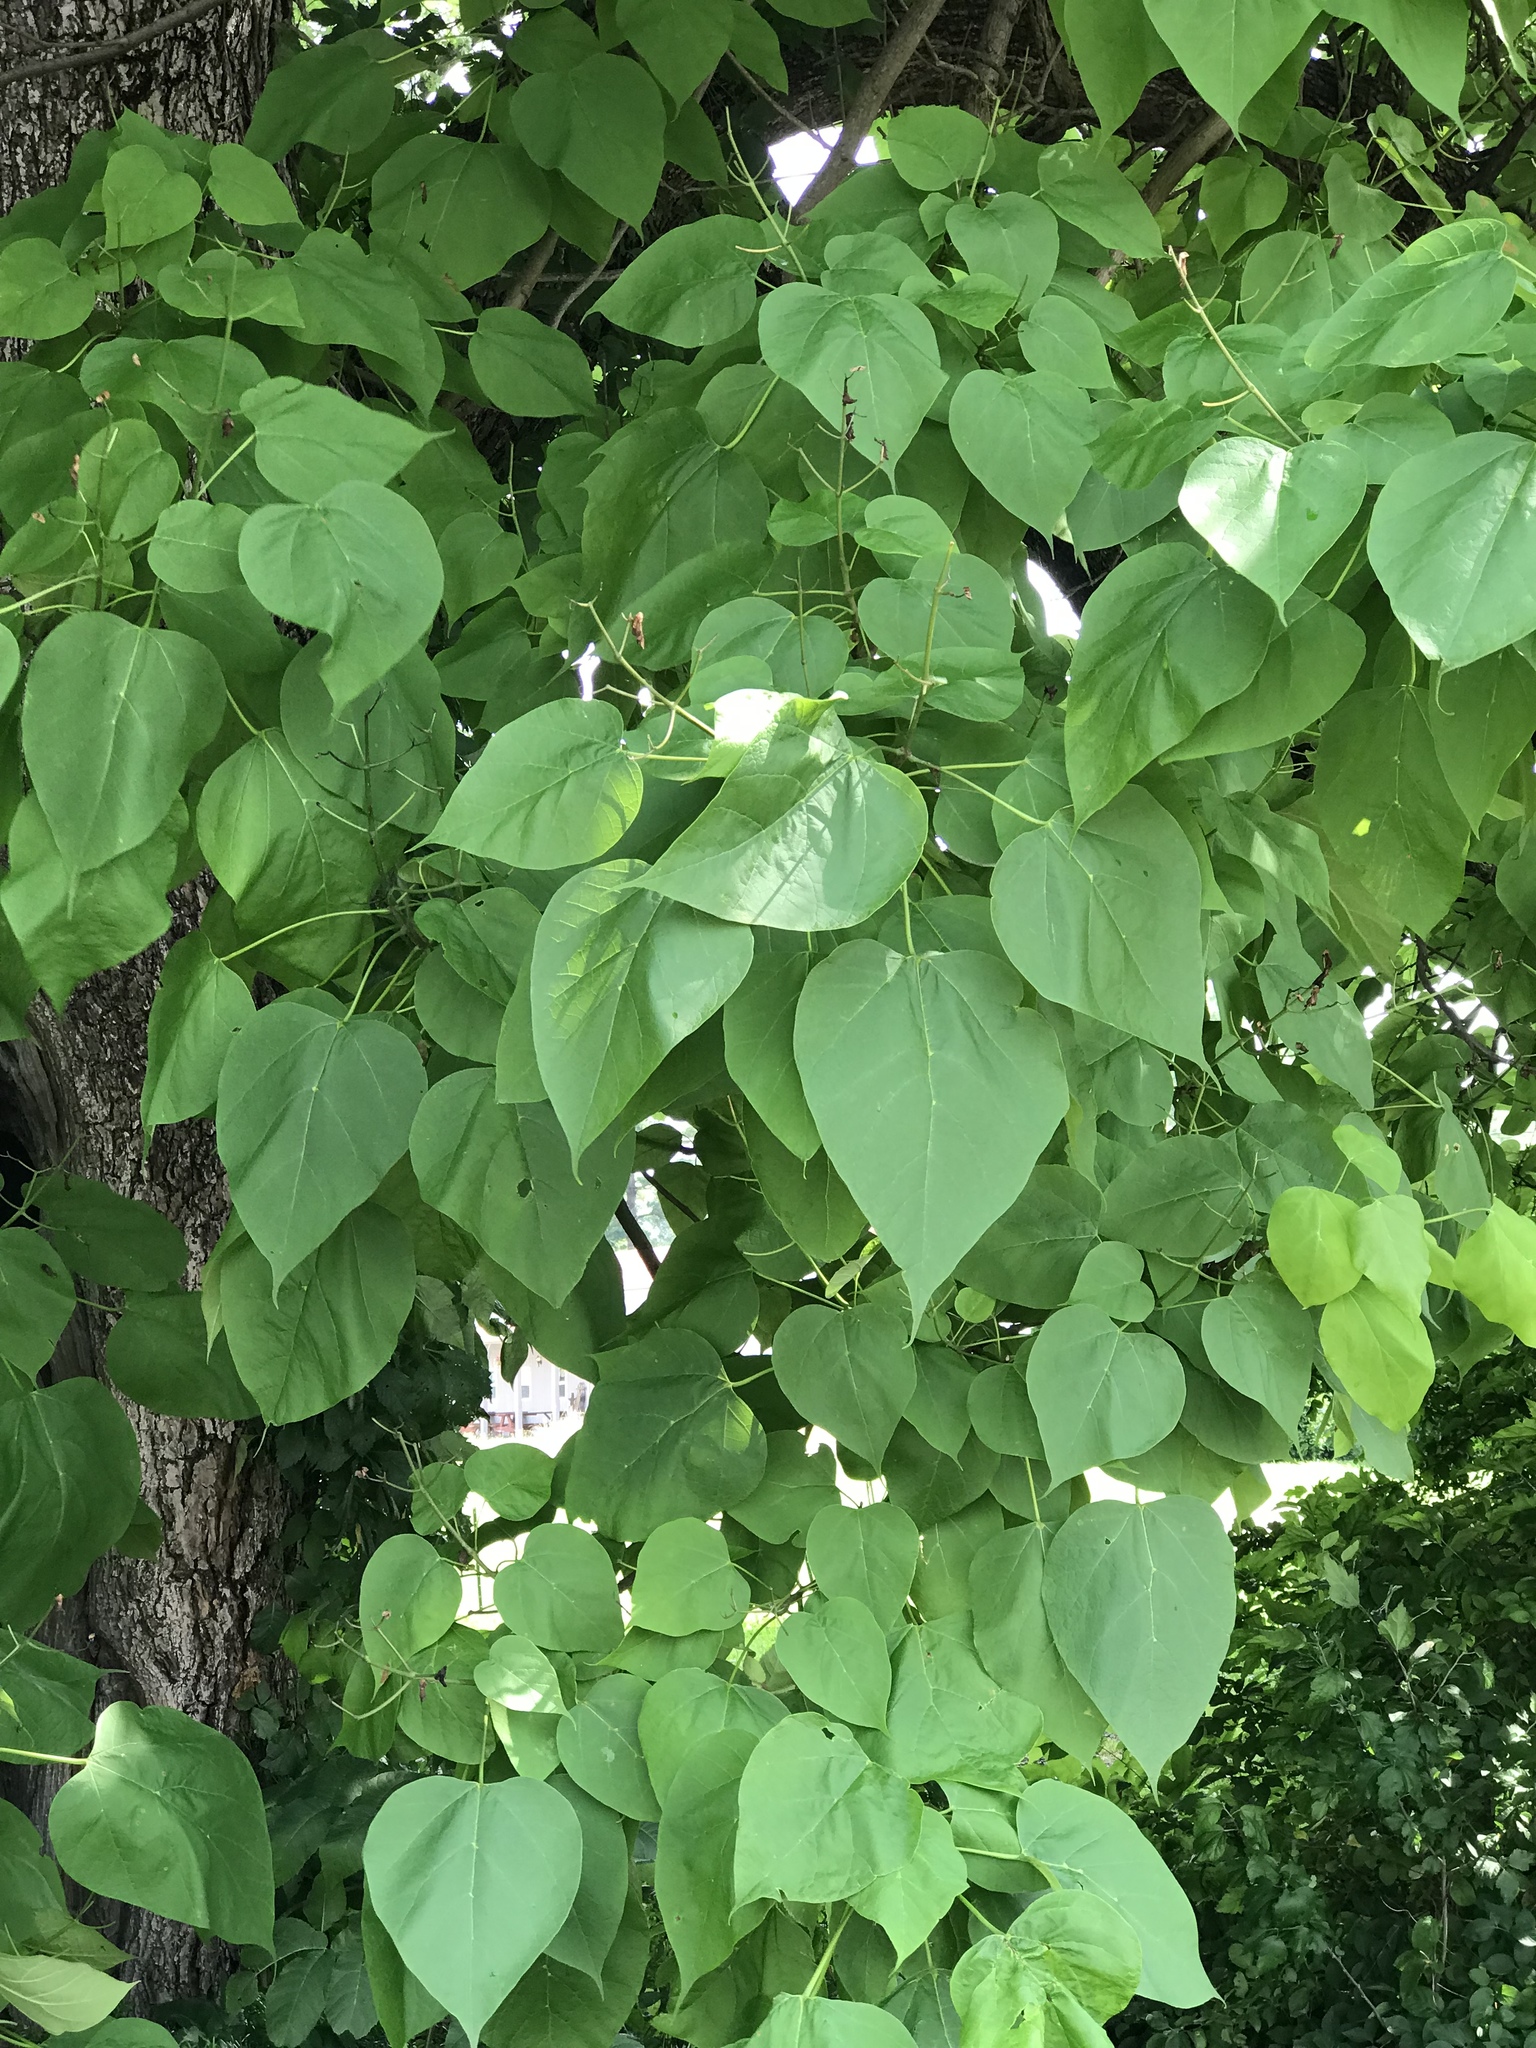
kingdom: Plantae
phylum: Tracheophyta
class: Magnoliopsida
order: Lamiales
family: Bignoniaceae
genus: Catalpa
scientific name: Catalpa speciosa
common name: Northern catalpa
